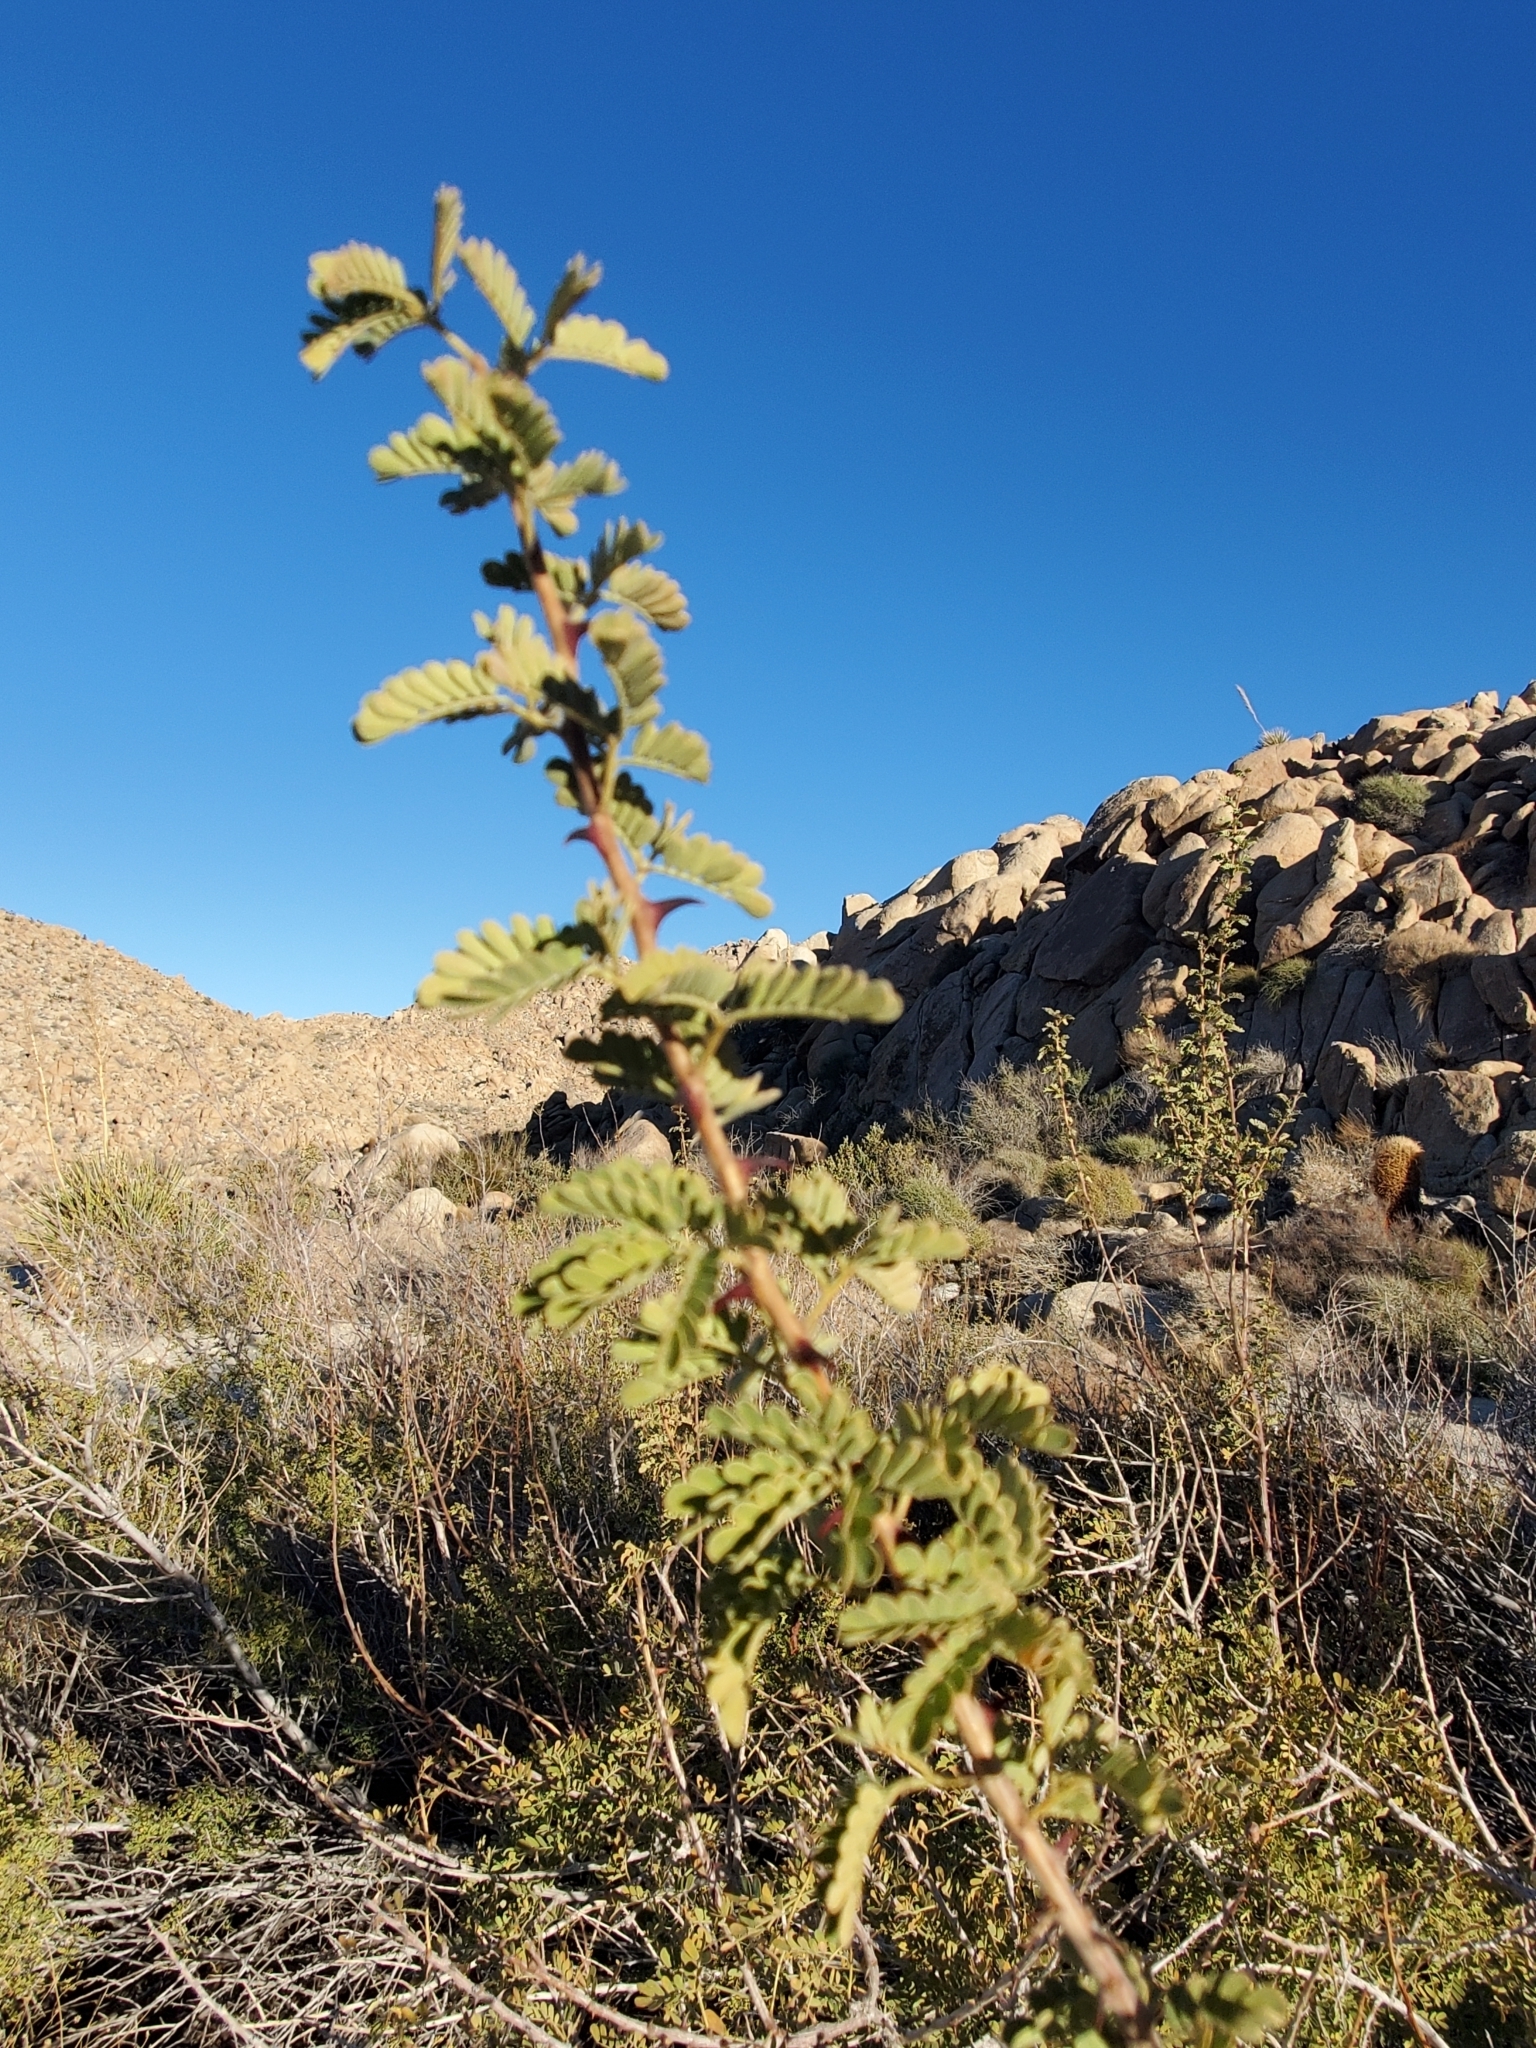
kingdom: Plantae
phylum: Tracheophyta
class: Magnoliopsida
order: Fabales
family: Fabaceae
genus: Senegalia
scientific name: Senegalia greggii
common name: Texas-mimosa
